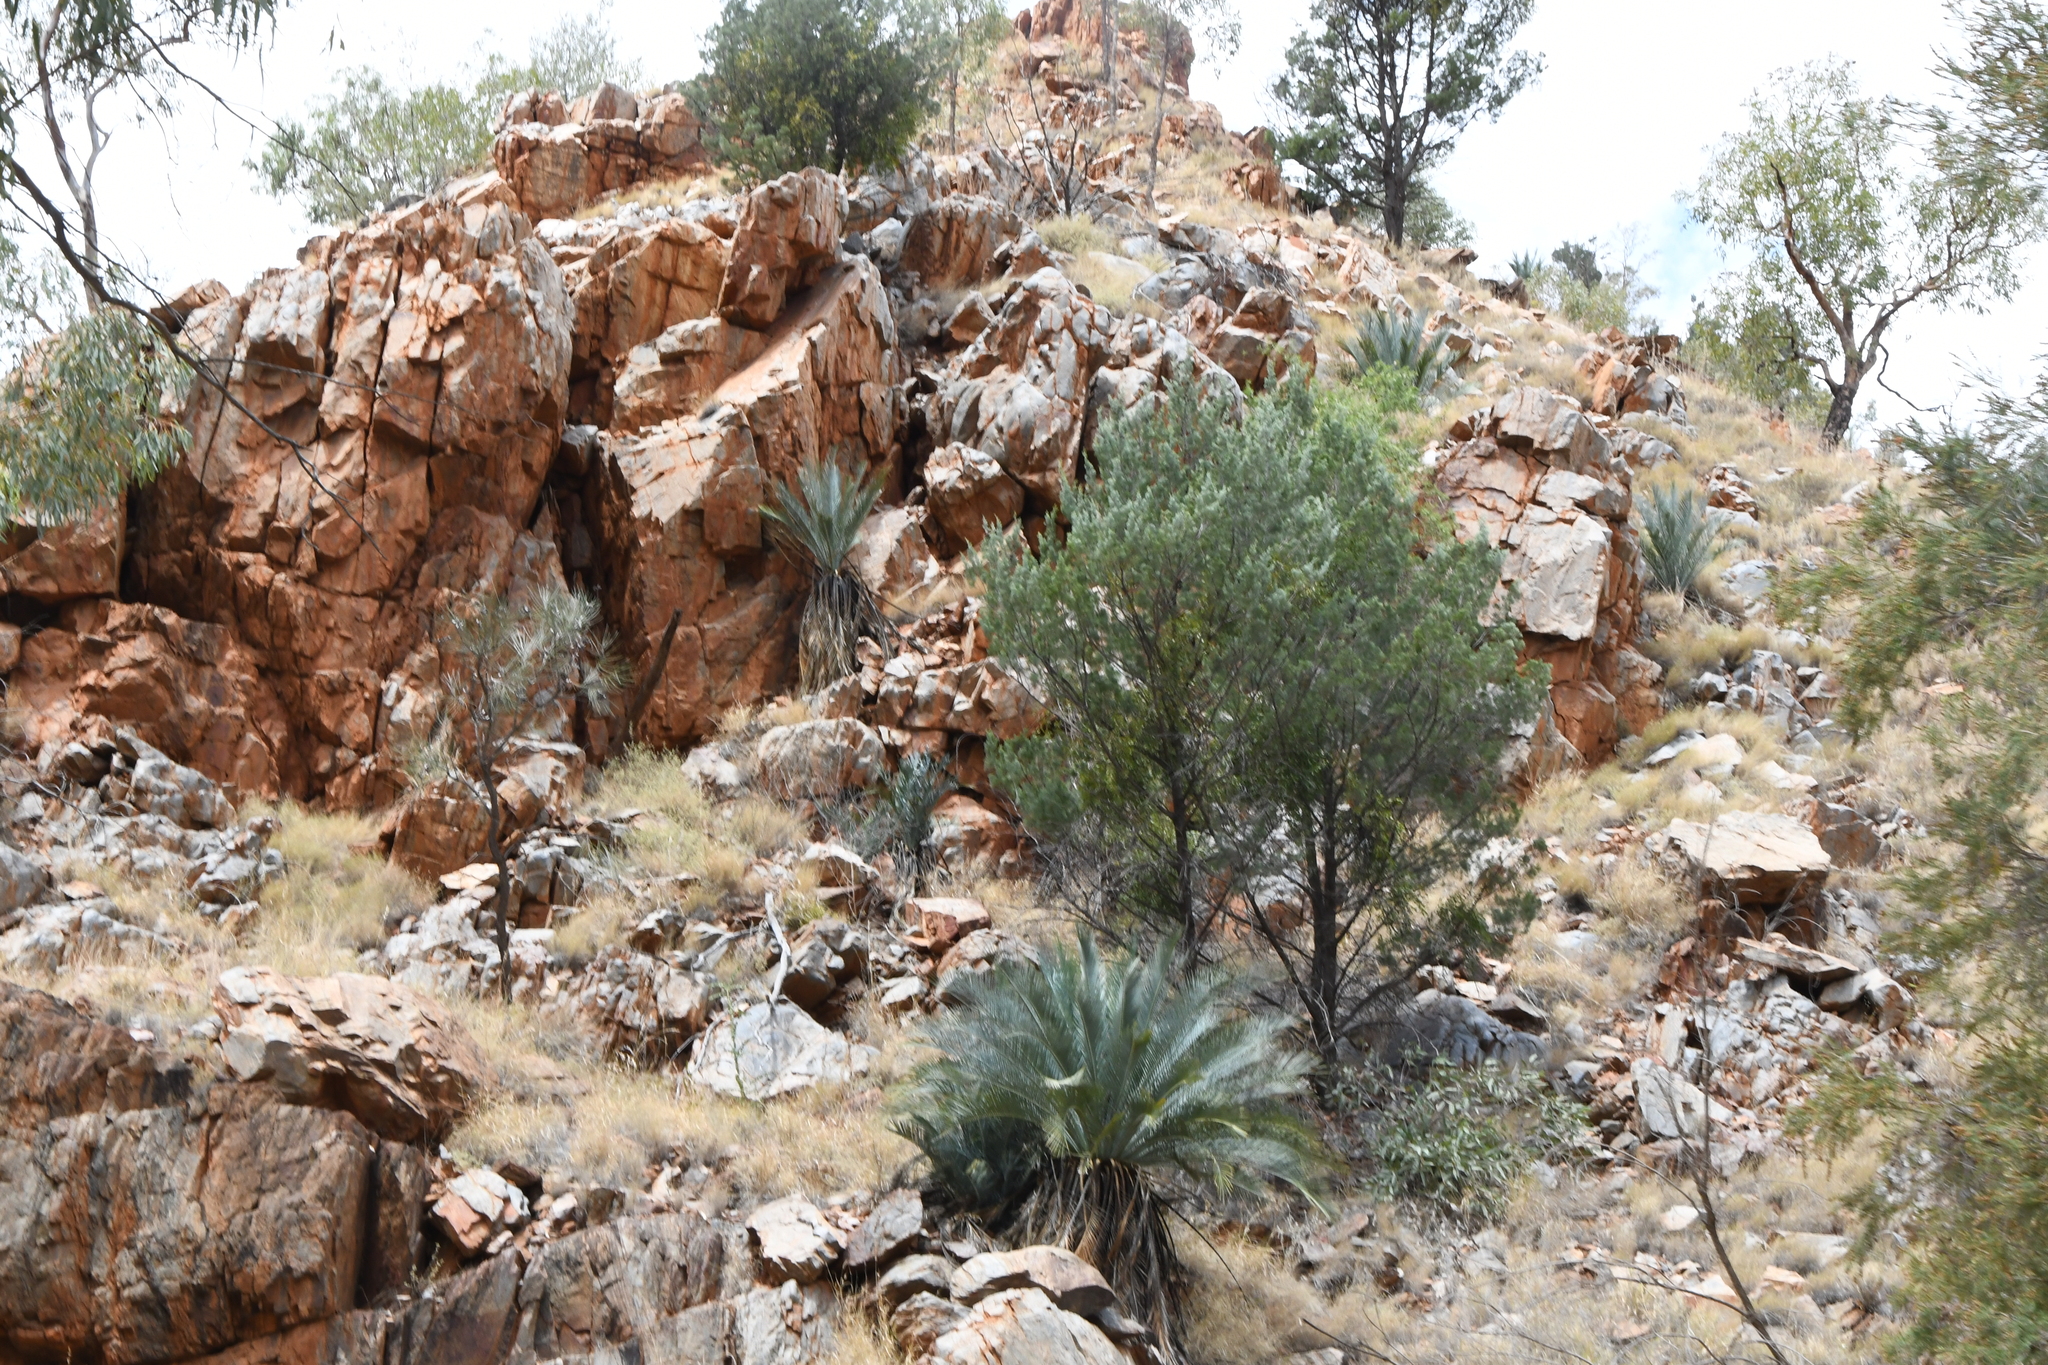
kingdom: Plantae
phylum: Tracheophyta
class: Cycadopsida
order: Cycadales
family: Zamiaceae
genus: Macrozamia
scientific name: Macrozamia macdonnellii
